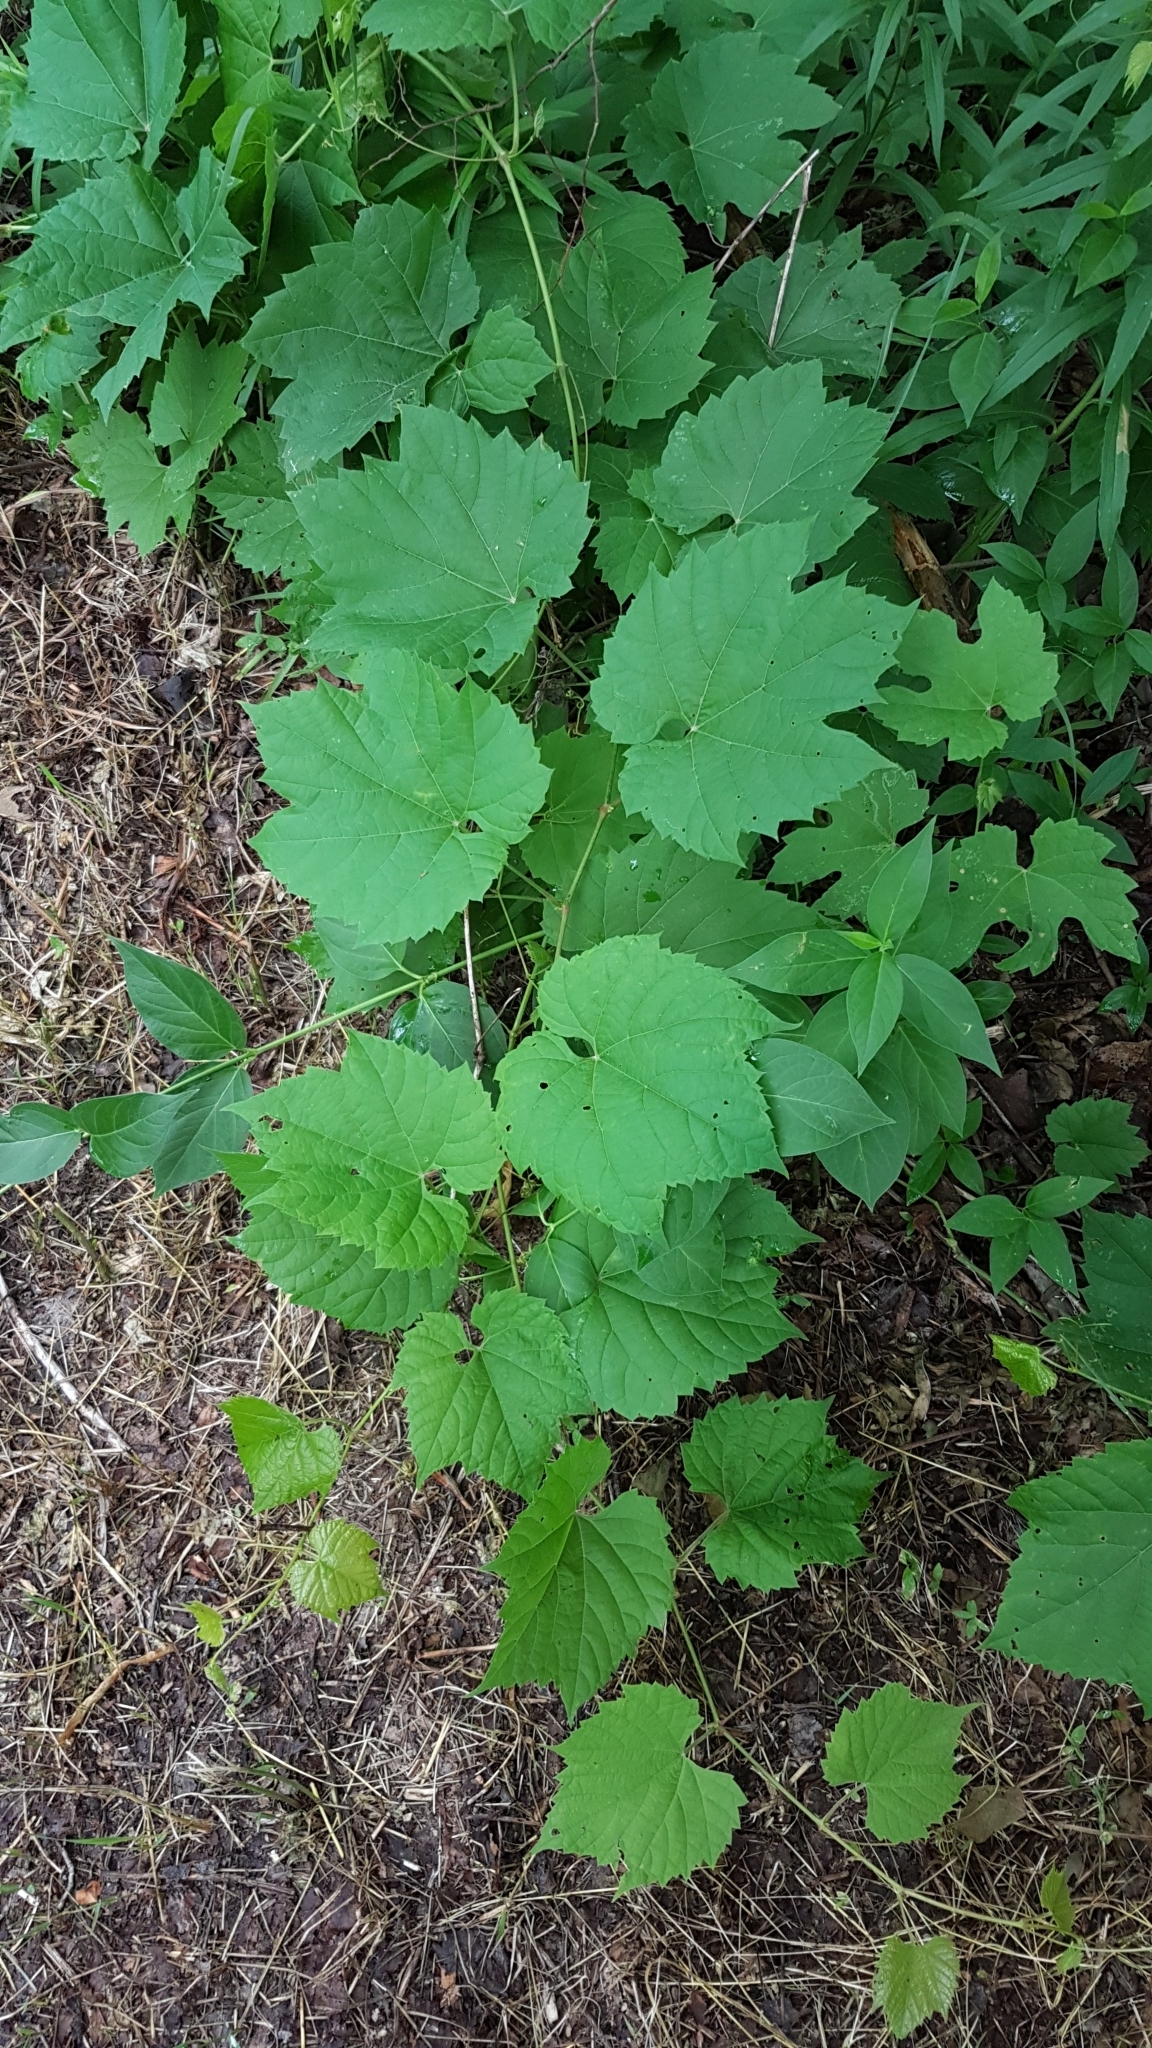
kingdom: Plantae
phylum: Tracheophyta
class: Magnoliopsida
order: Vitales
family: Vitaceae
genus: Vitis
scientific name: Vitis riparia
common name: Frost grape
